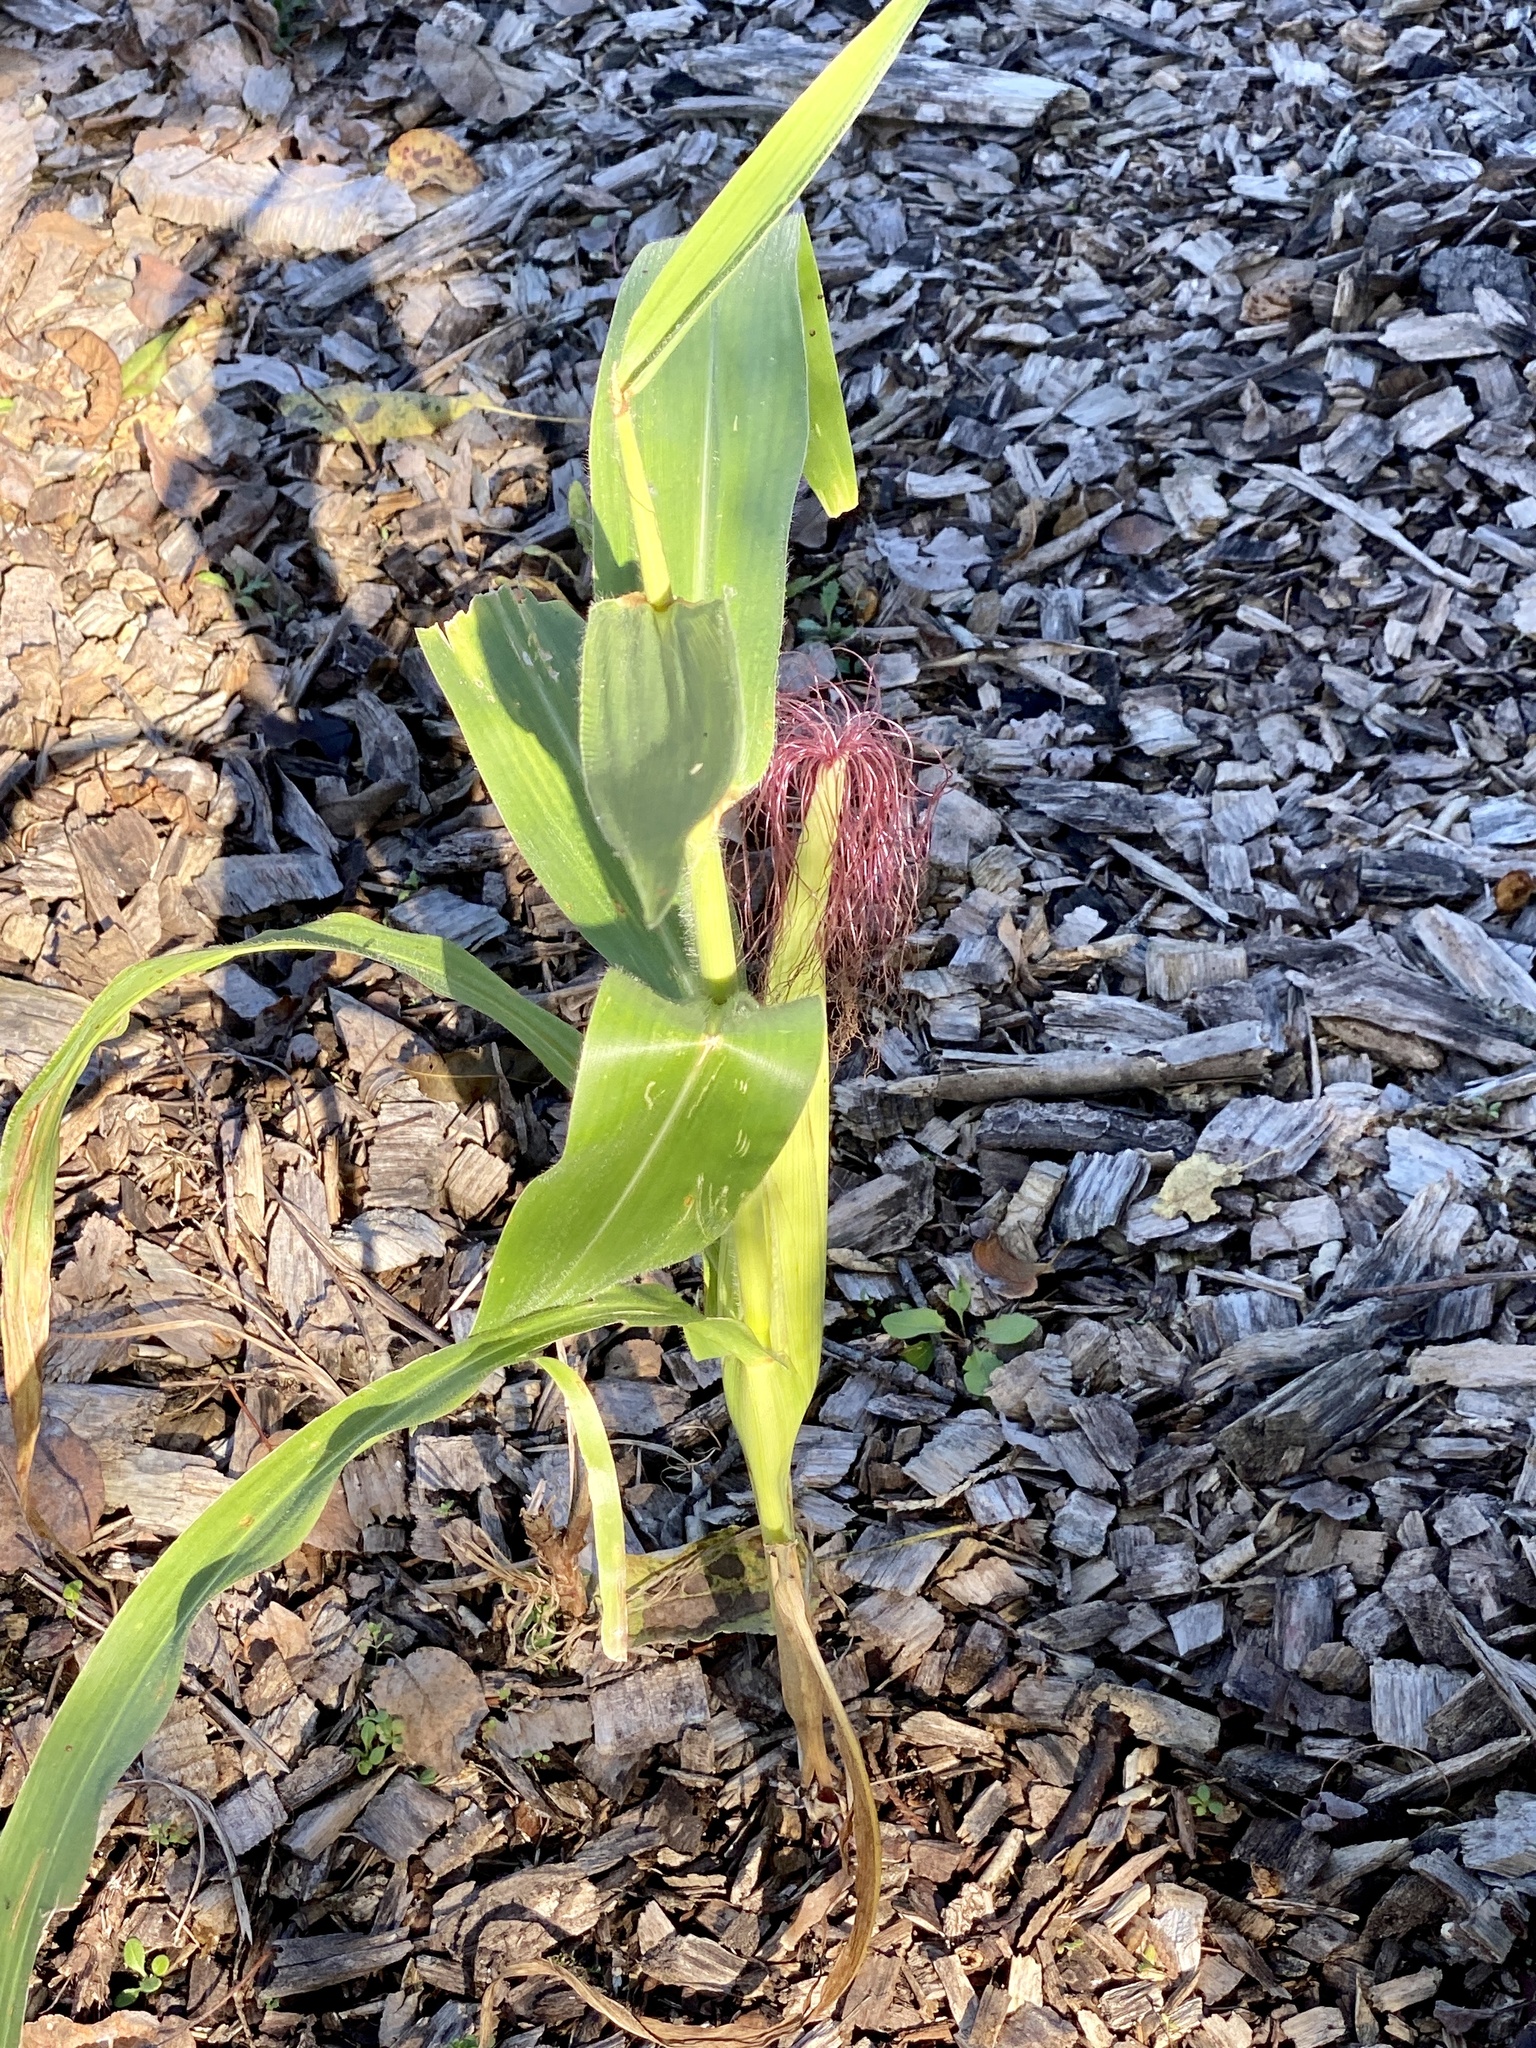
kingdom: Plantae
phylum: Tracheophyta
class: Liliopsida
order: Poales
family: Poaceae
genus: Zea
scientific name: Zea mays
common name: Maize
